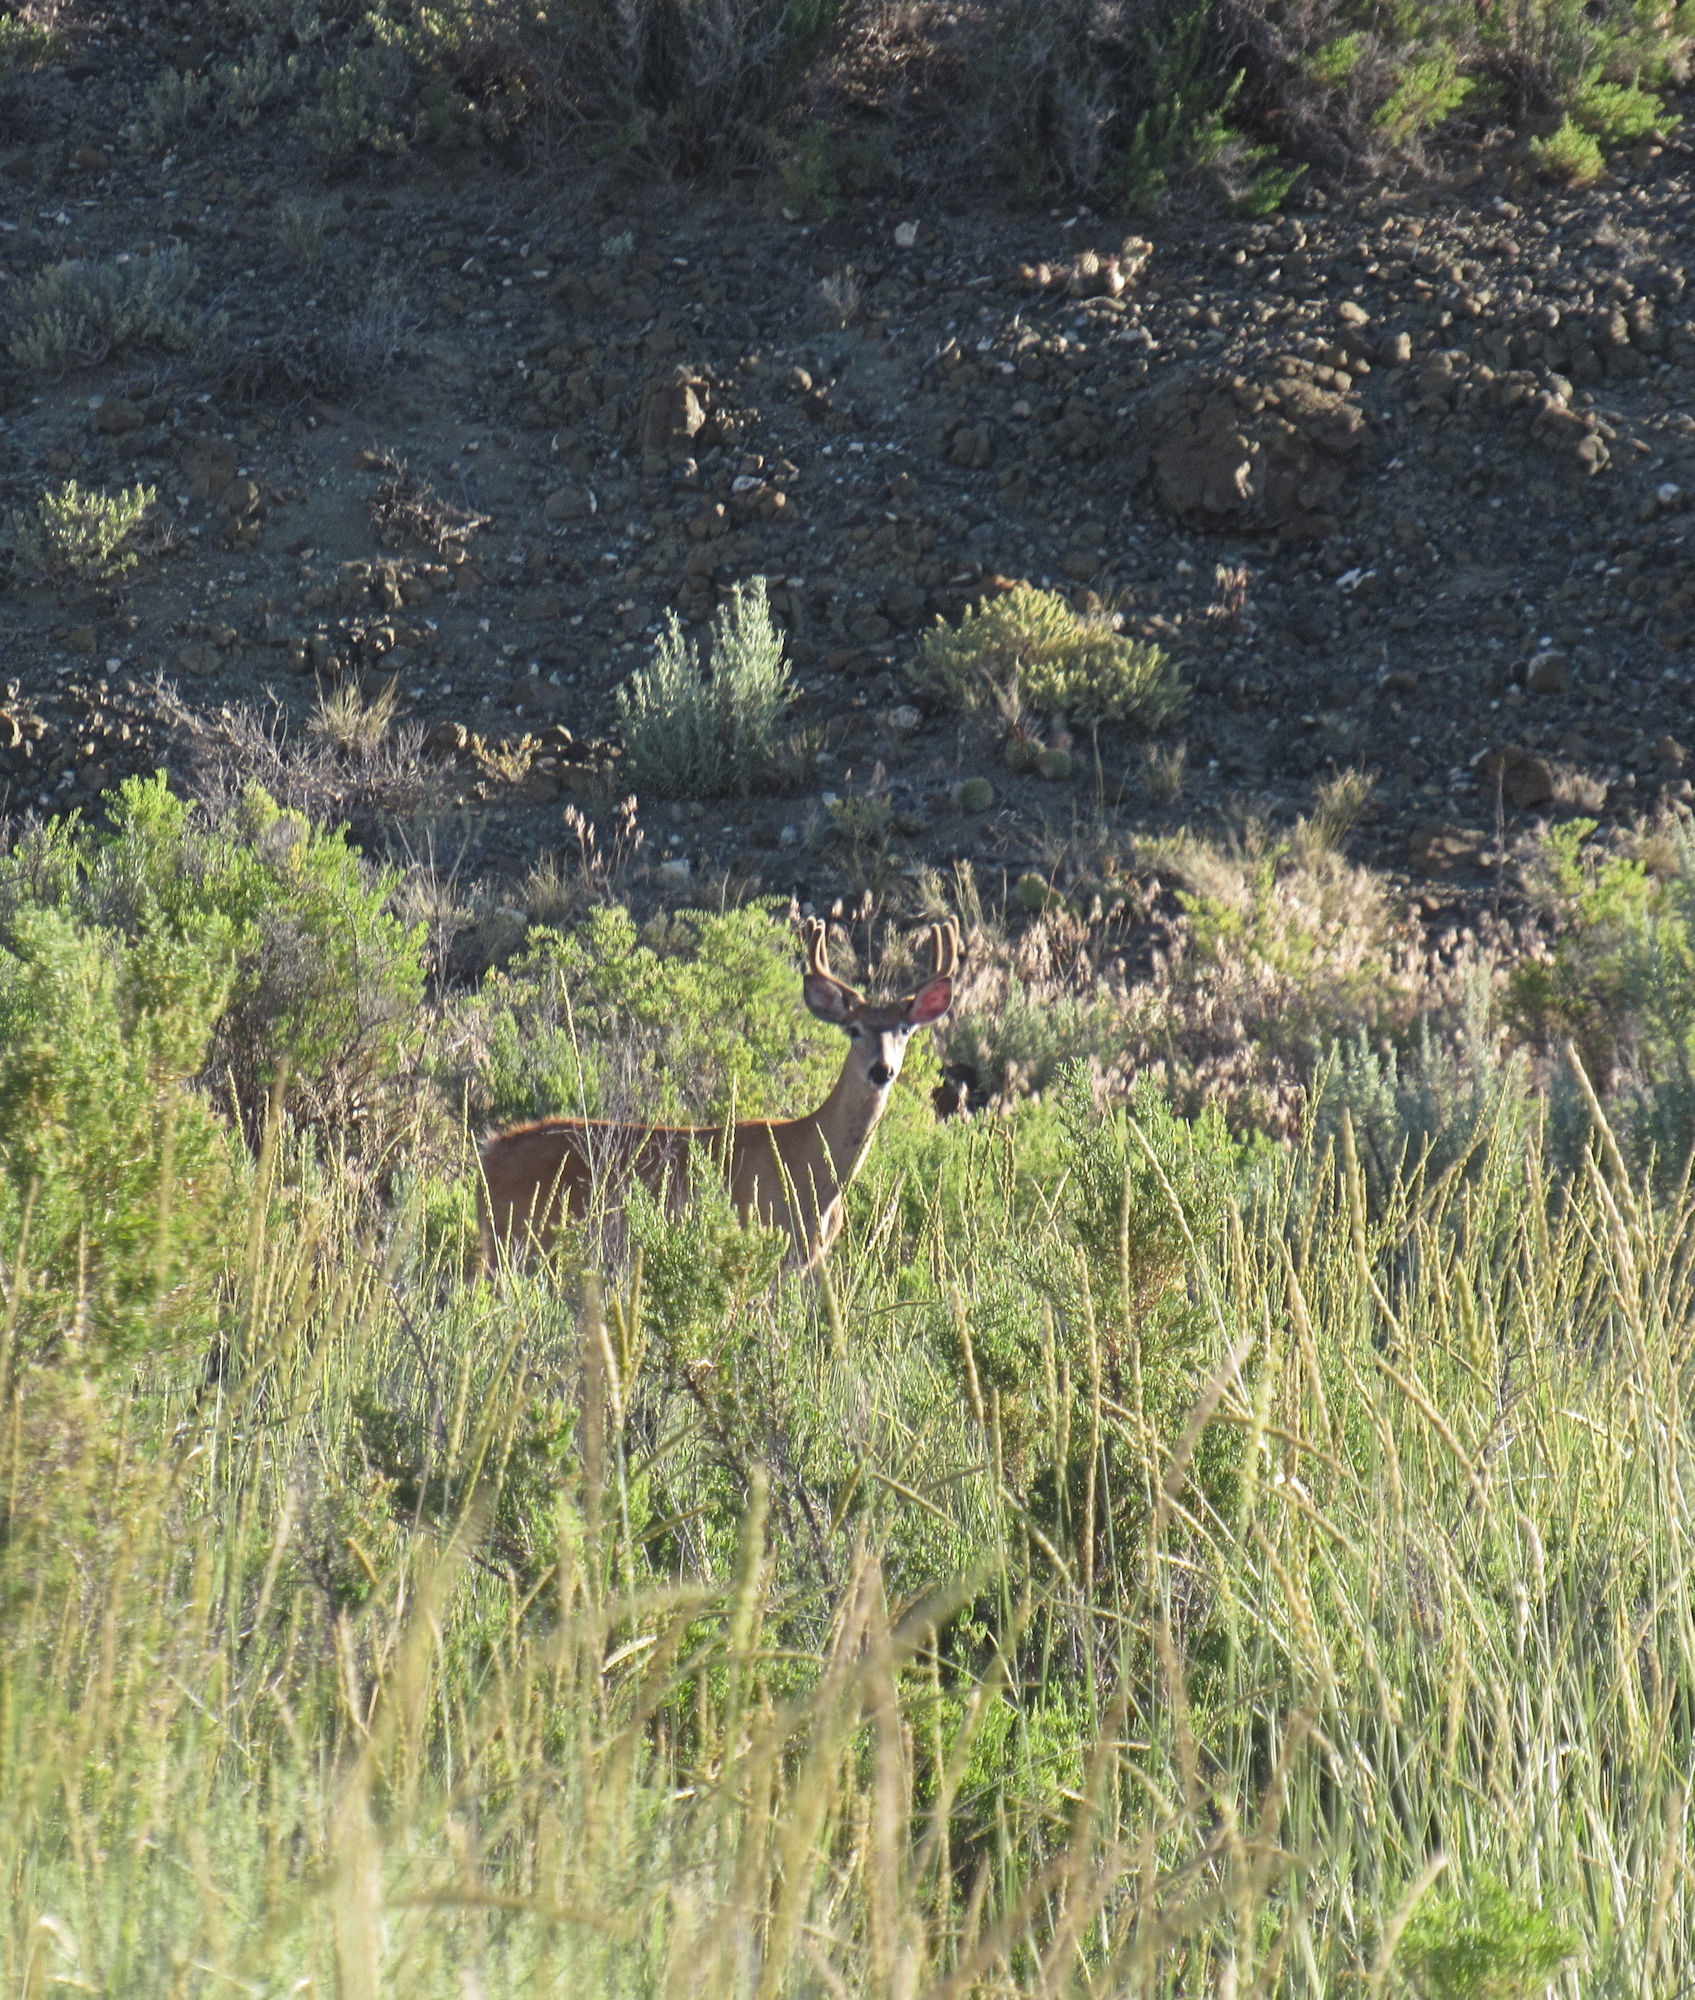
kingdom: Animalia
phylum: Chordata
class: Mammalia
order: Artiodactyla
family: Cervidae
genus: Odocoileus
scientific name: Odocoileus virginianus
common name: White-tailed deer
